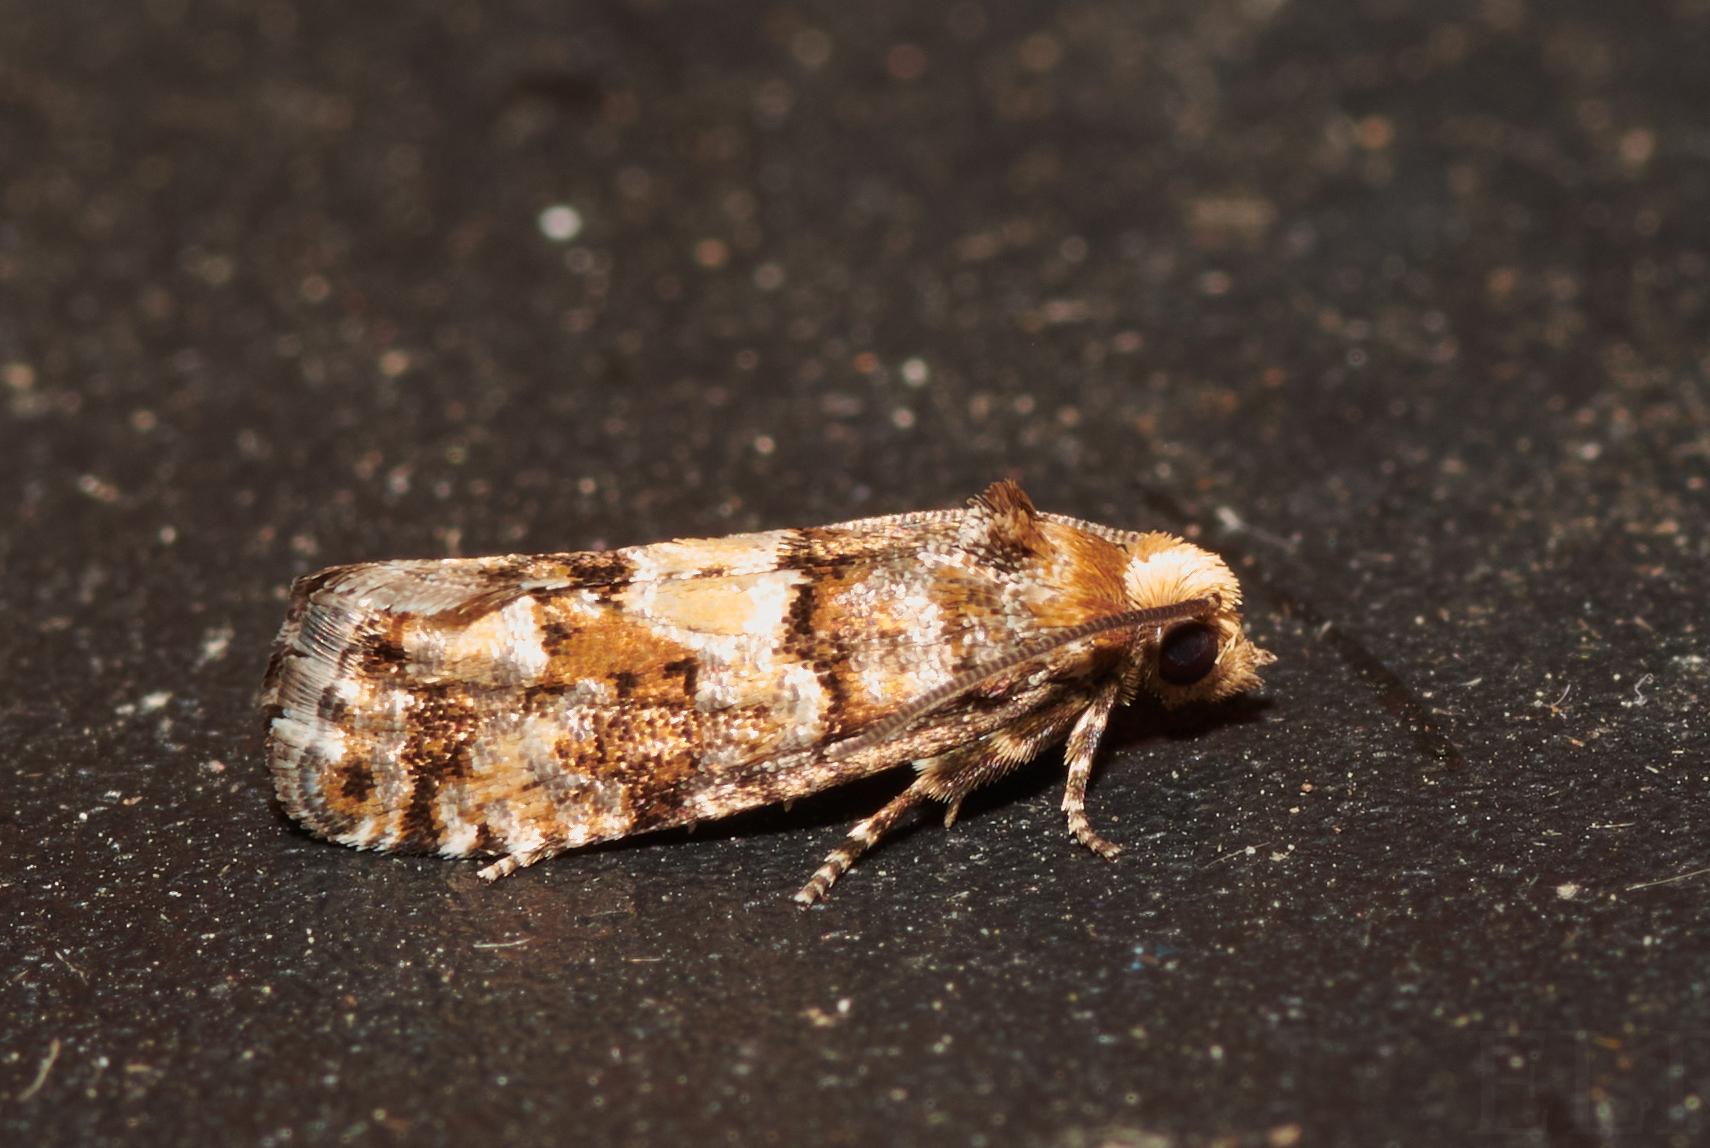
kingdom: Animalia
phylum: Arthropoda
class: Insecta
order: Lepidoptera
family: Tortricidae
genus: Eucopina
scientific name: Eucopina tocullionana
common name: White pinecone borer moth
